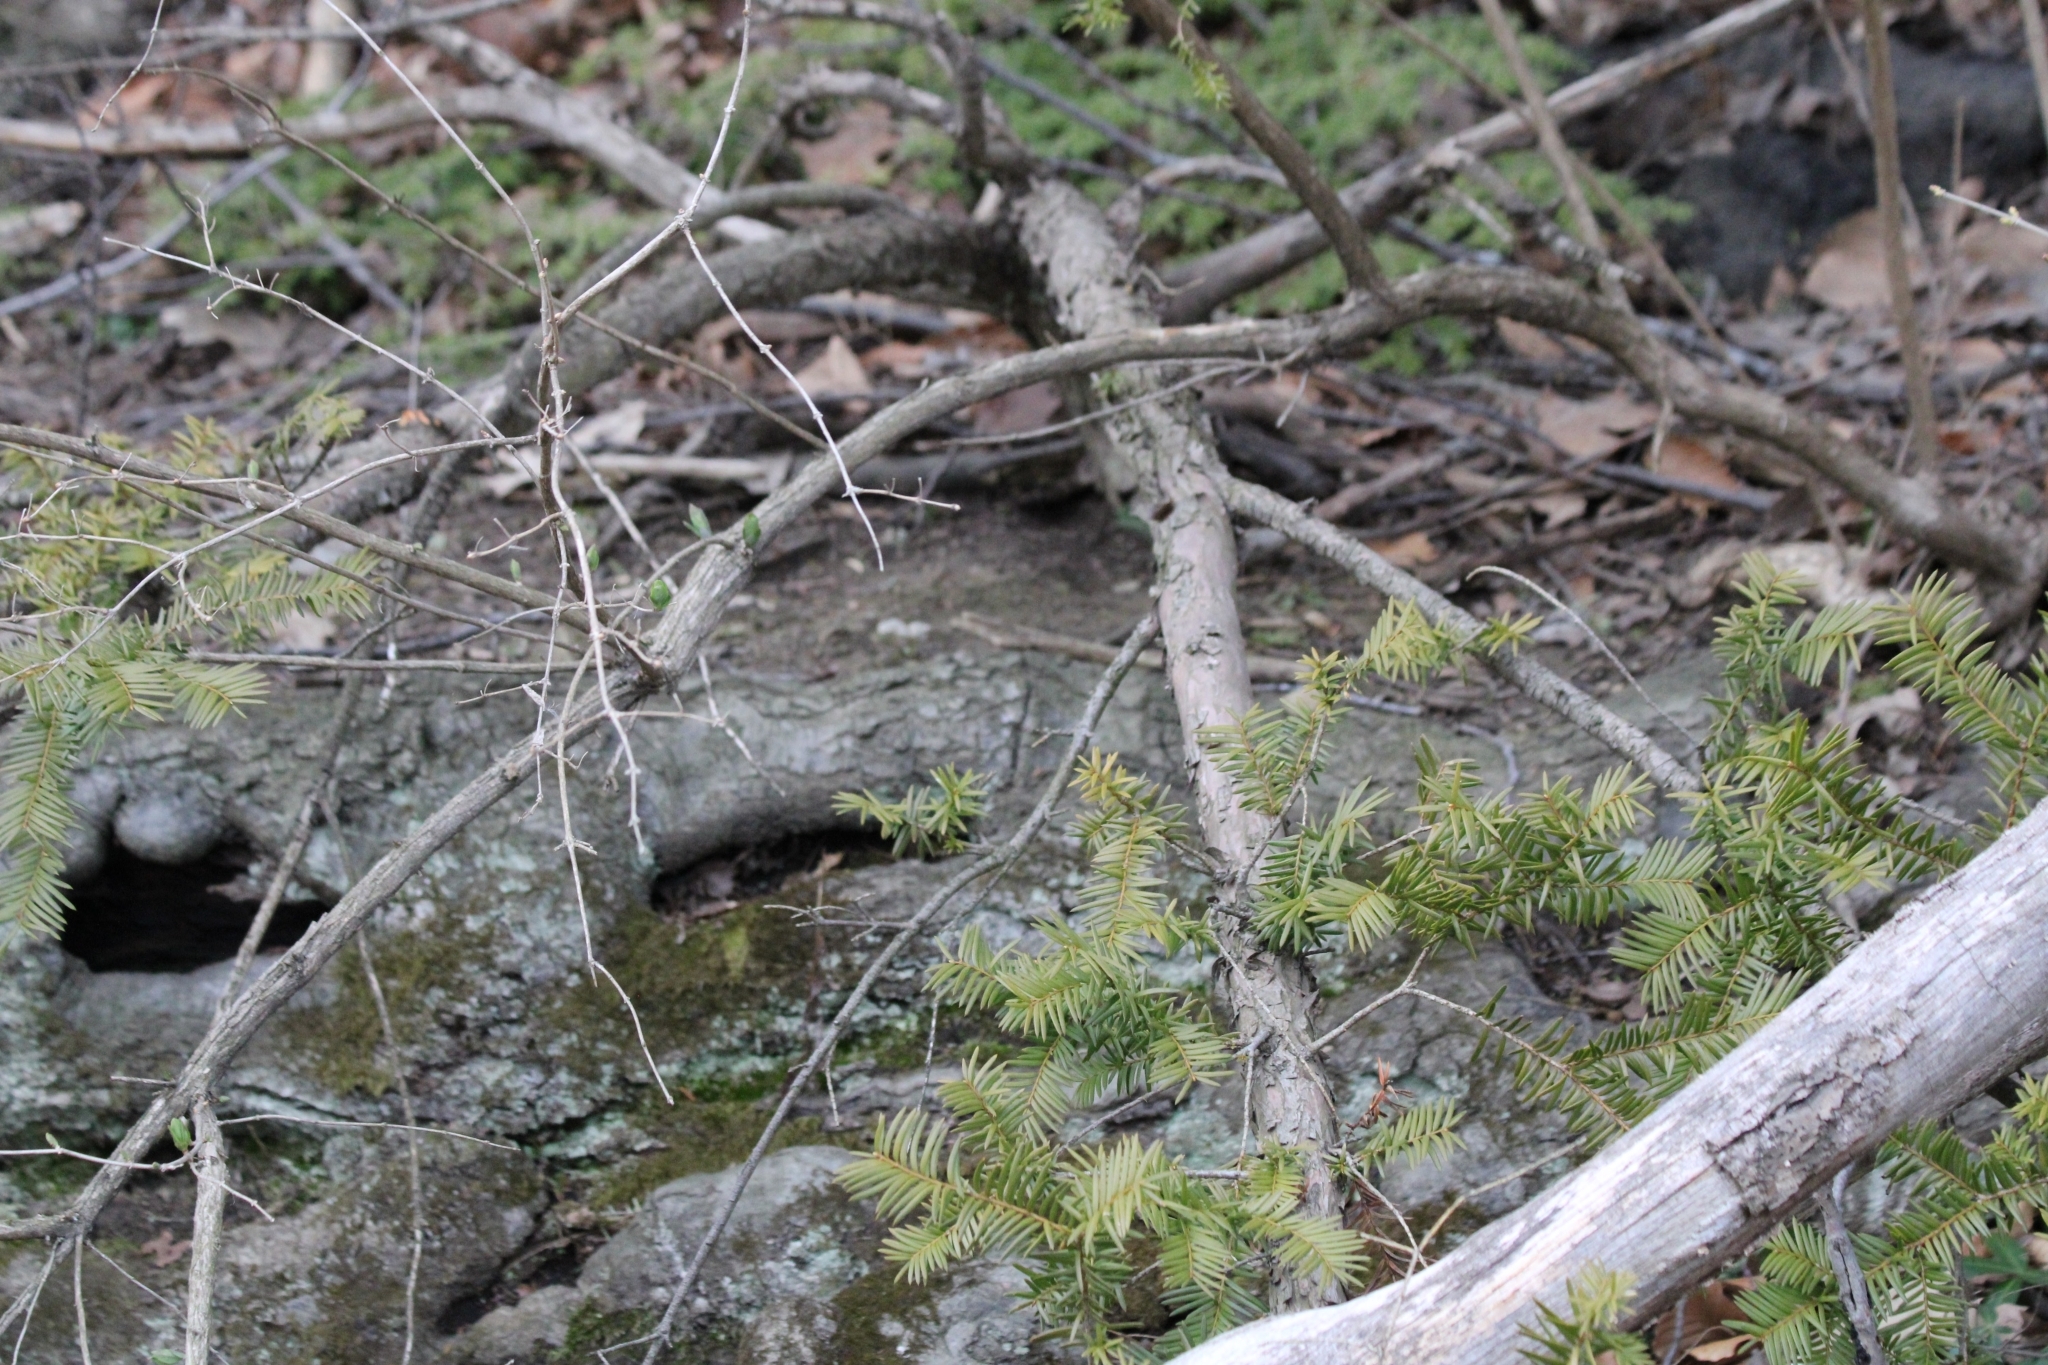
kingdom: Plantae
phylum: Tracheophyta
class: Pinopsida
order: Pinales
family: Taxaceae
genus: Taxus
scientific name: Taxus canadensis
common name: American yew
